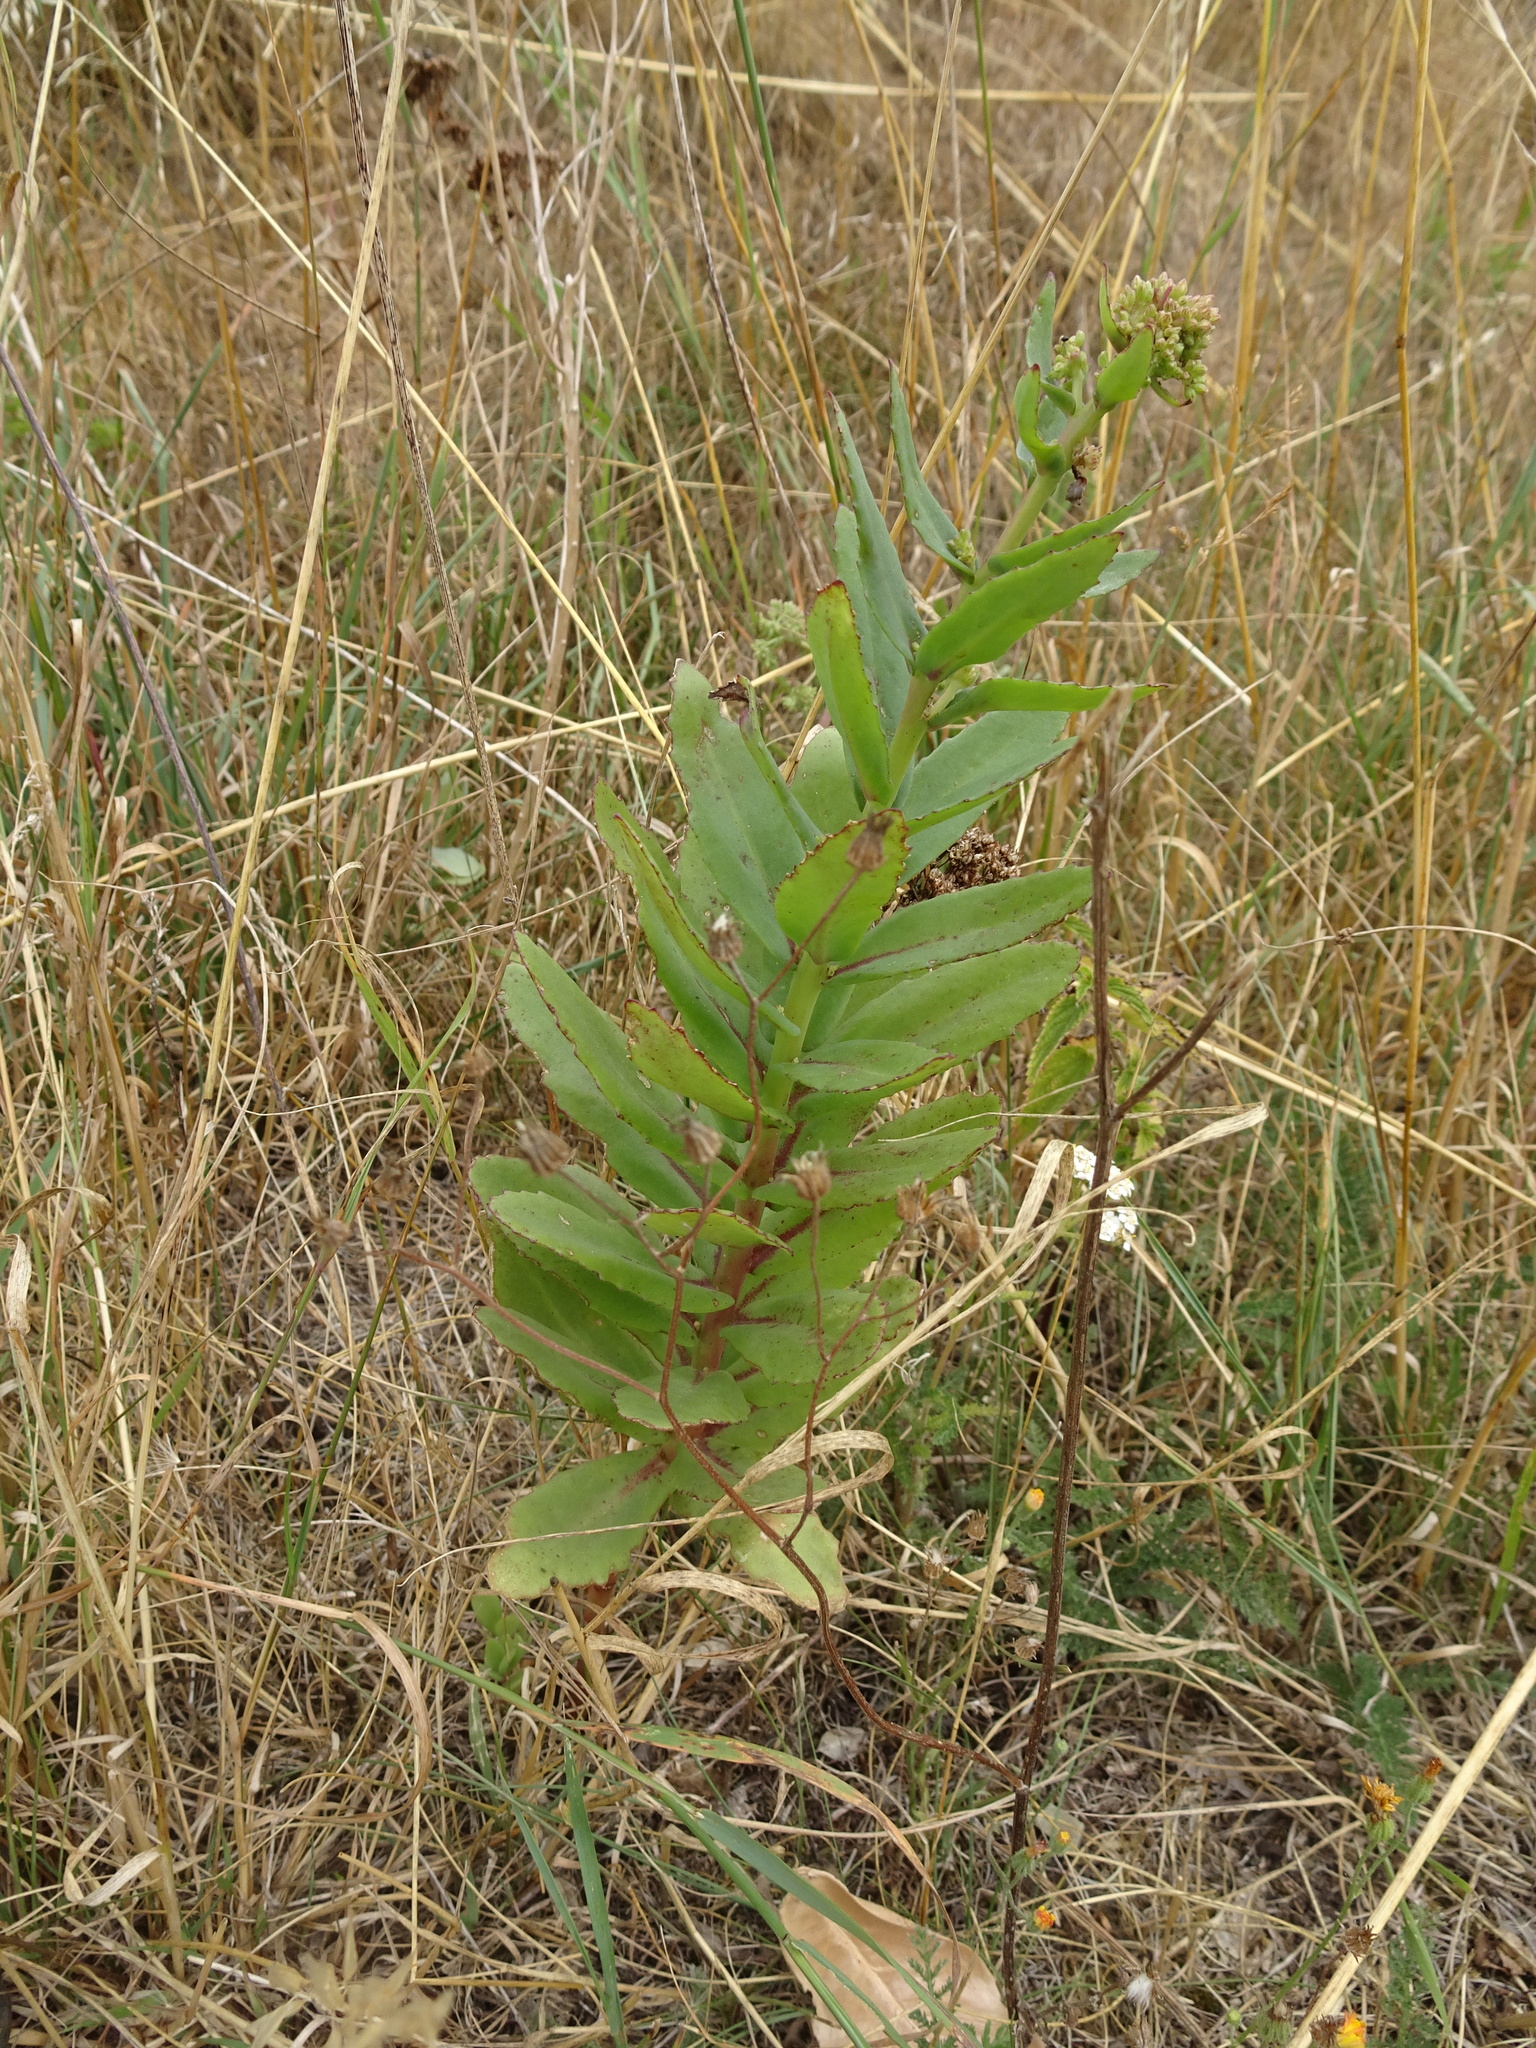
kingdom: Plantae
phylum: Tracheophyta
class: Magnoliopsida
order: Saxifragales
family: Crassulaceae
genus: Hylotelephium
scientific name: Hylotelephium telephium
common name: Live-forever
